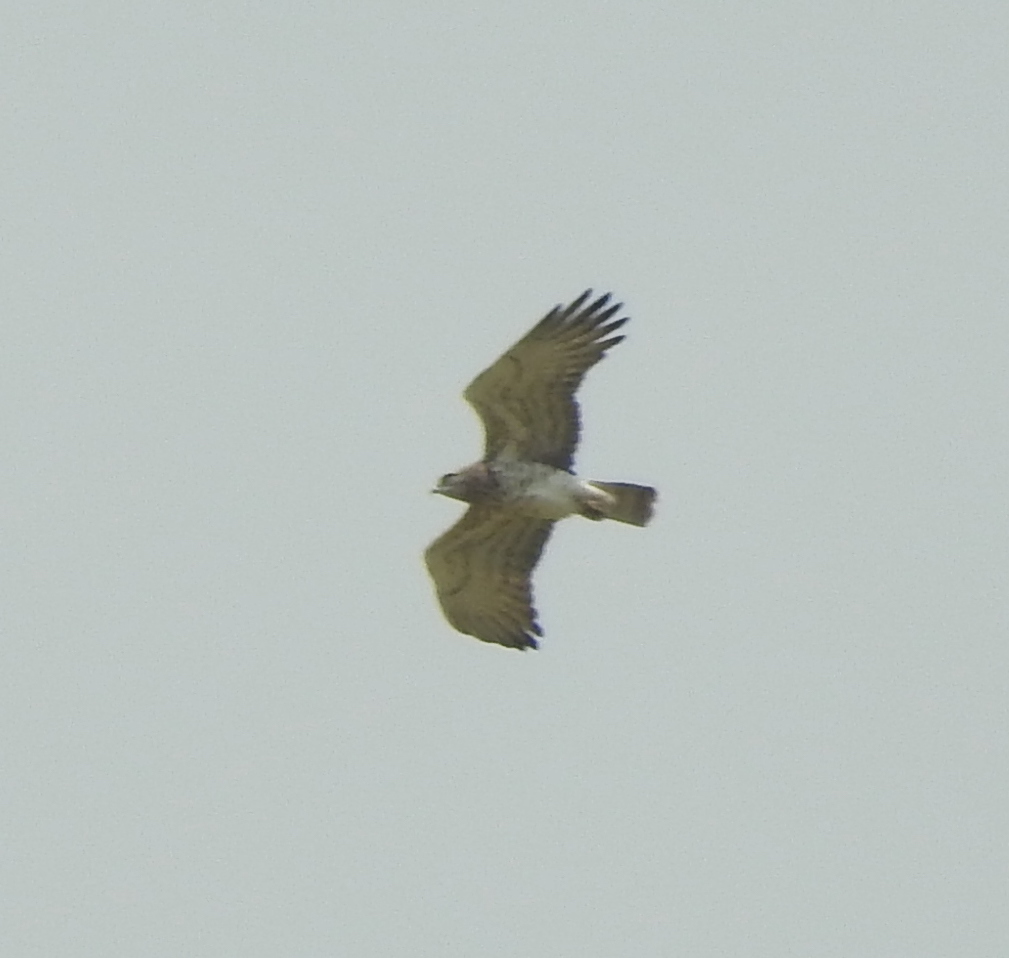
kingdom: Animalia
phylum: Chordata
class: Aves
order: Accipitriformes
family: Accipitridae
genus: Circaetus
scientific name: Circaetus gallicus
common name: Short-toed snake eagle
